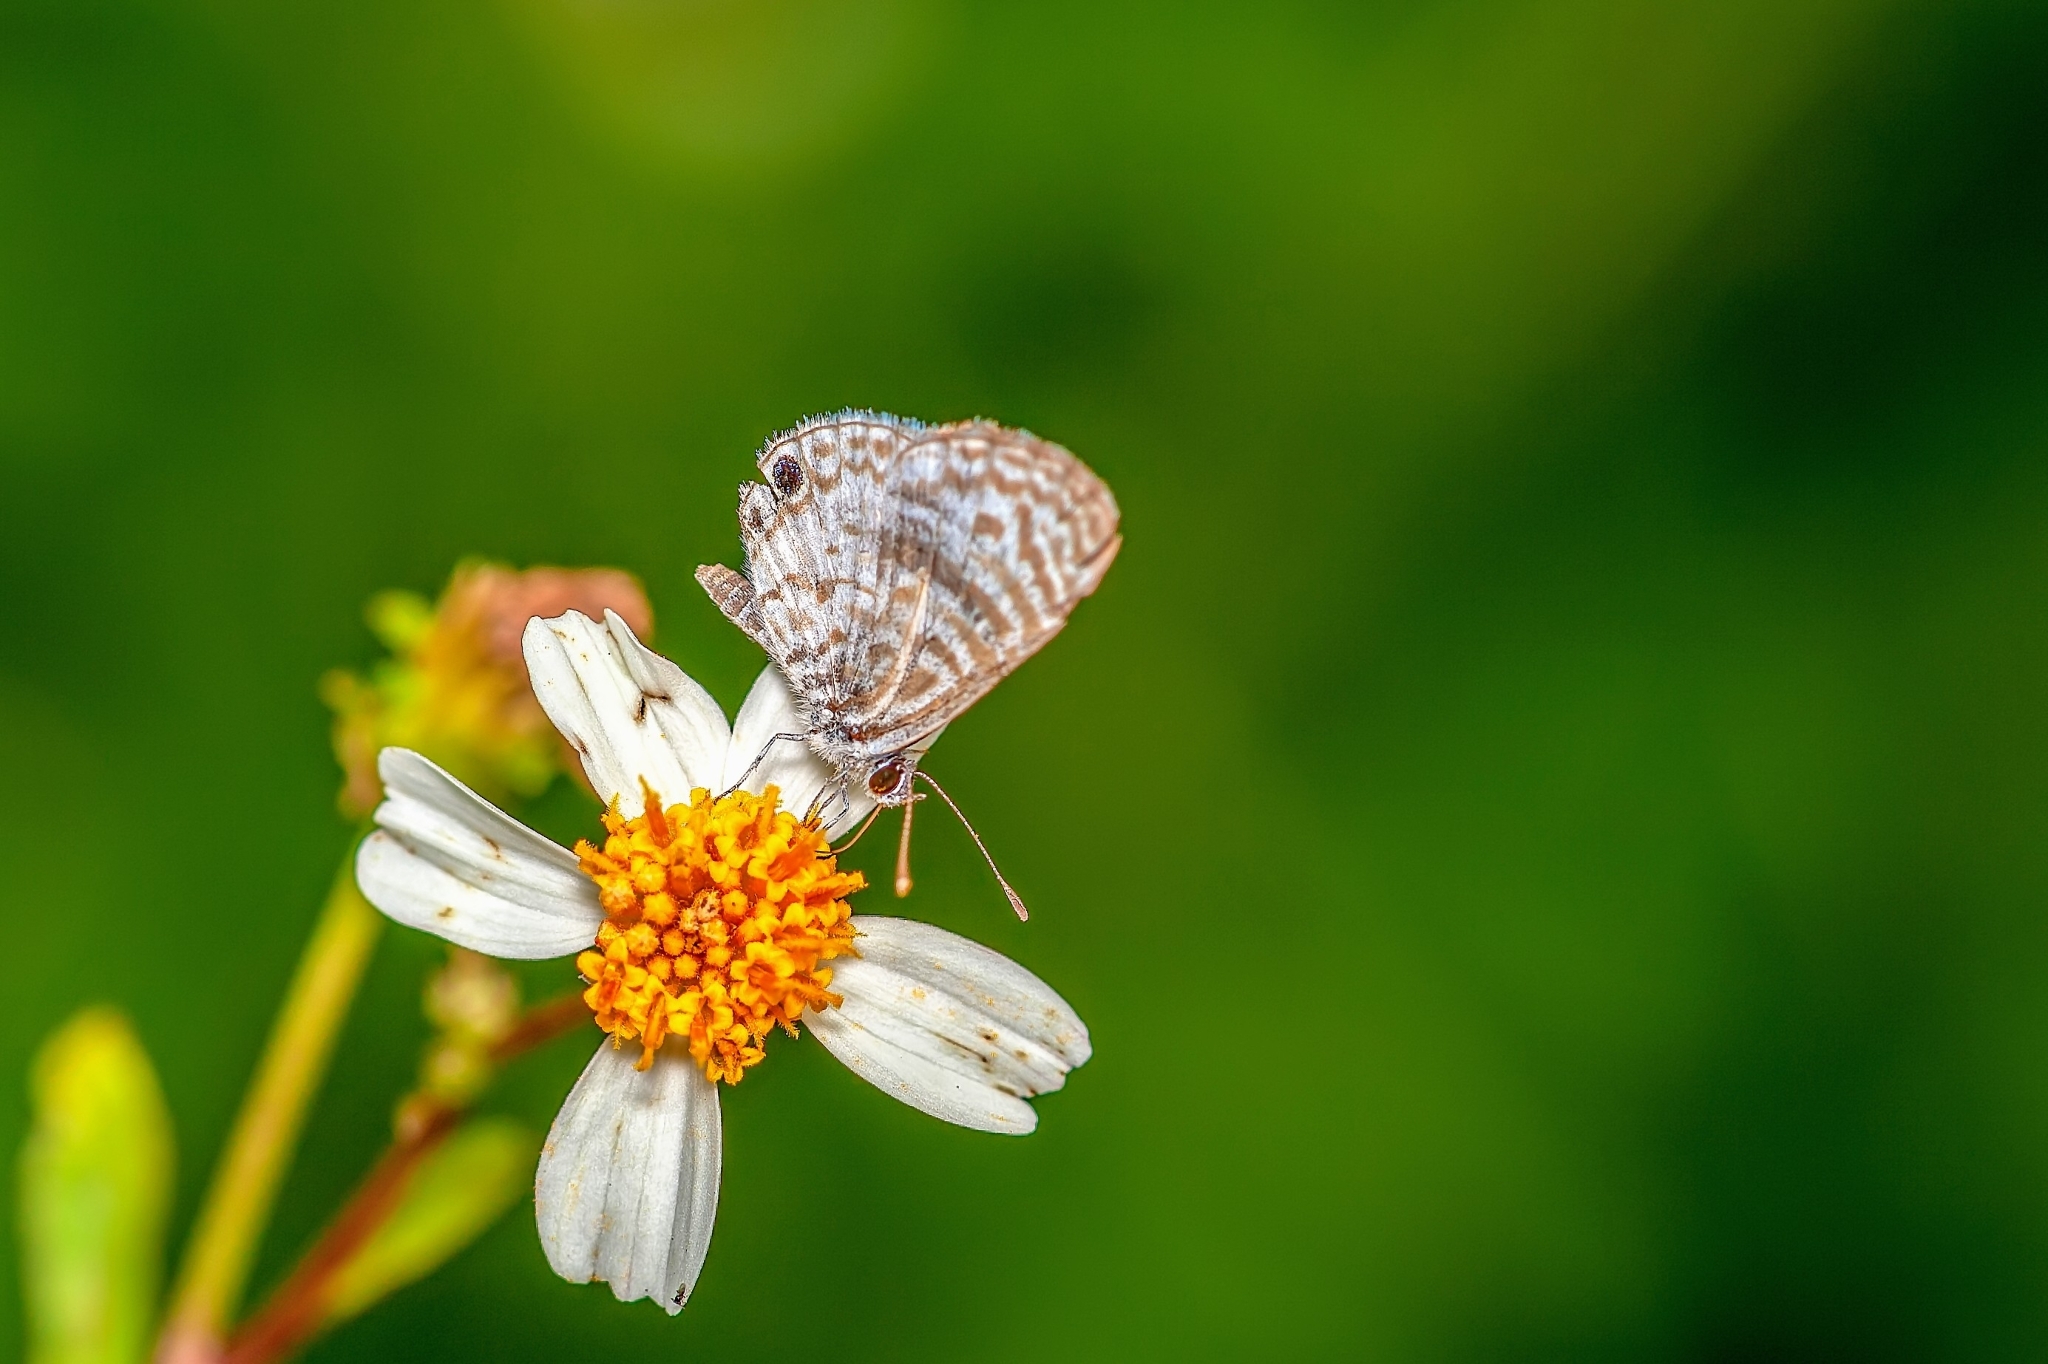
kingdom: Animalia
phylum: Arthropoda
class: Insecta
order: Lepidoptera
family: Lycaenidae
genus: Leptotes
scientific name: Leptotes cassius
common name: Cassius blue
